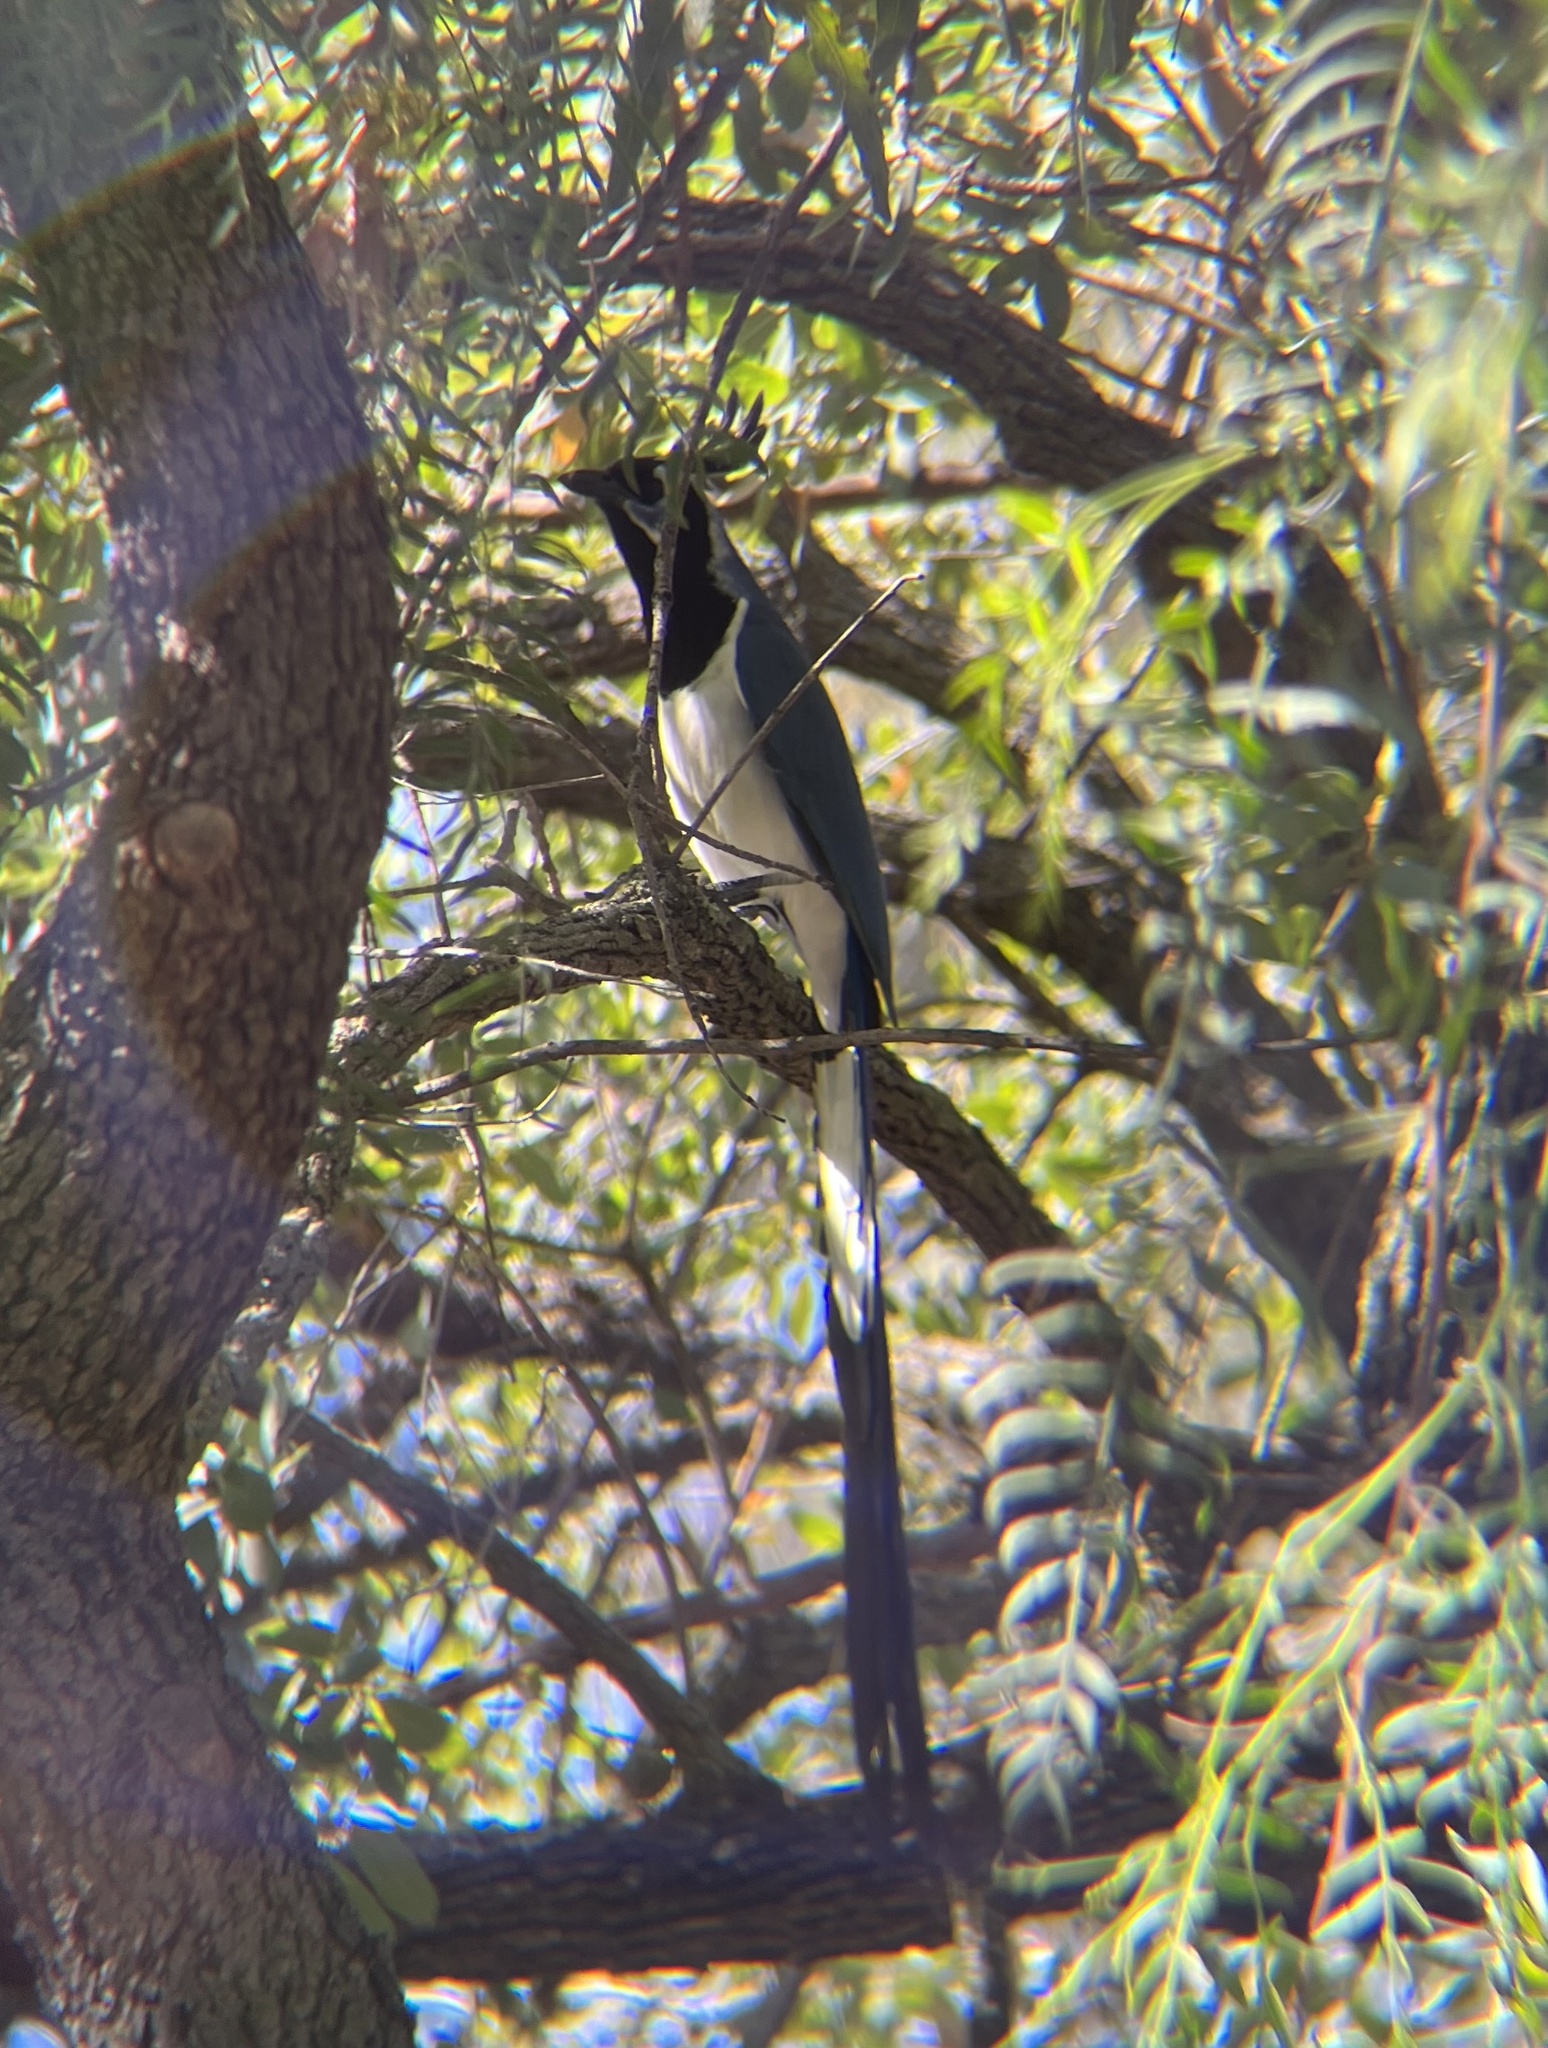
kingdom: Animalia
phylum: Chordata
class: Aves
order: Passeriformes
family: Corvidae
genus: Calocitta
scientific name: Calocitta colliei
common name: Black-throated magpie-jay
